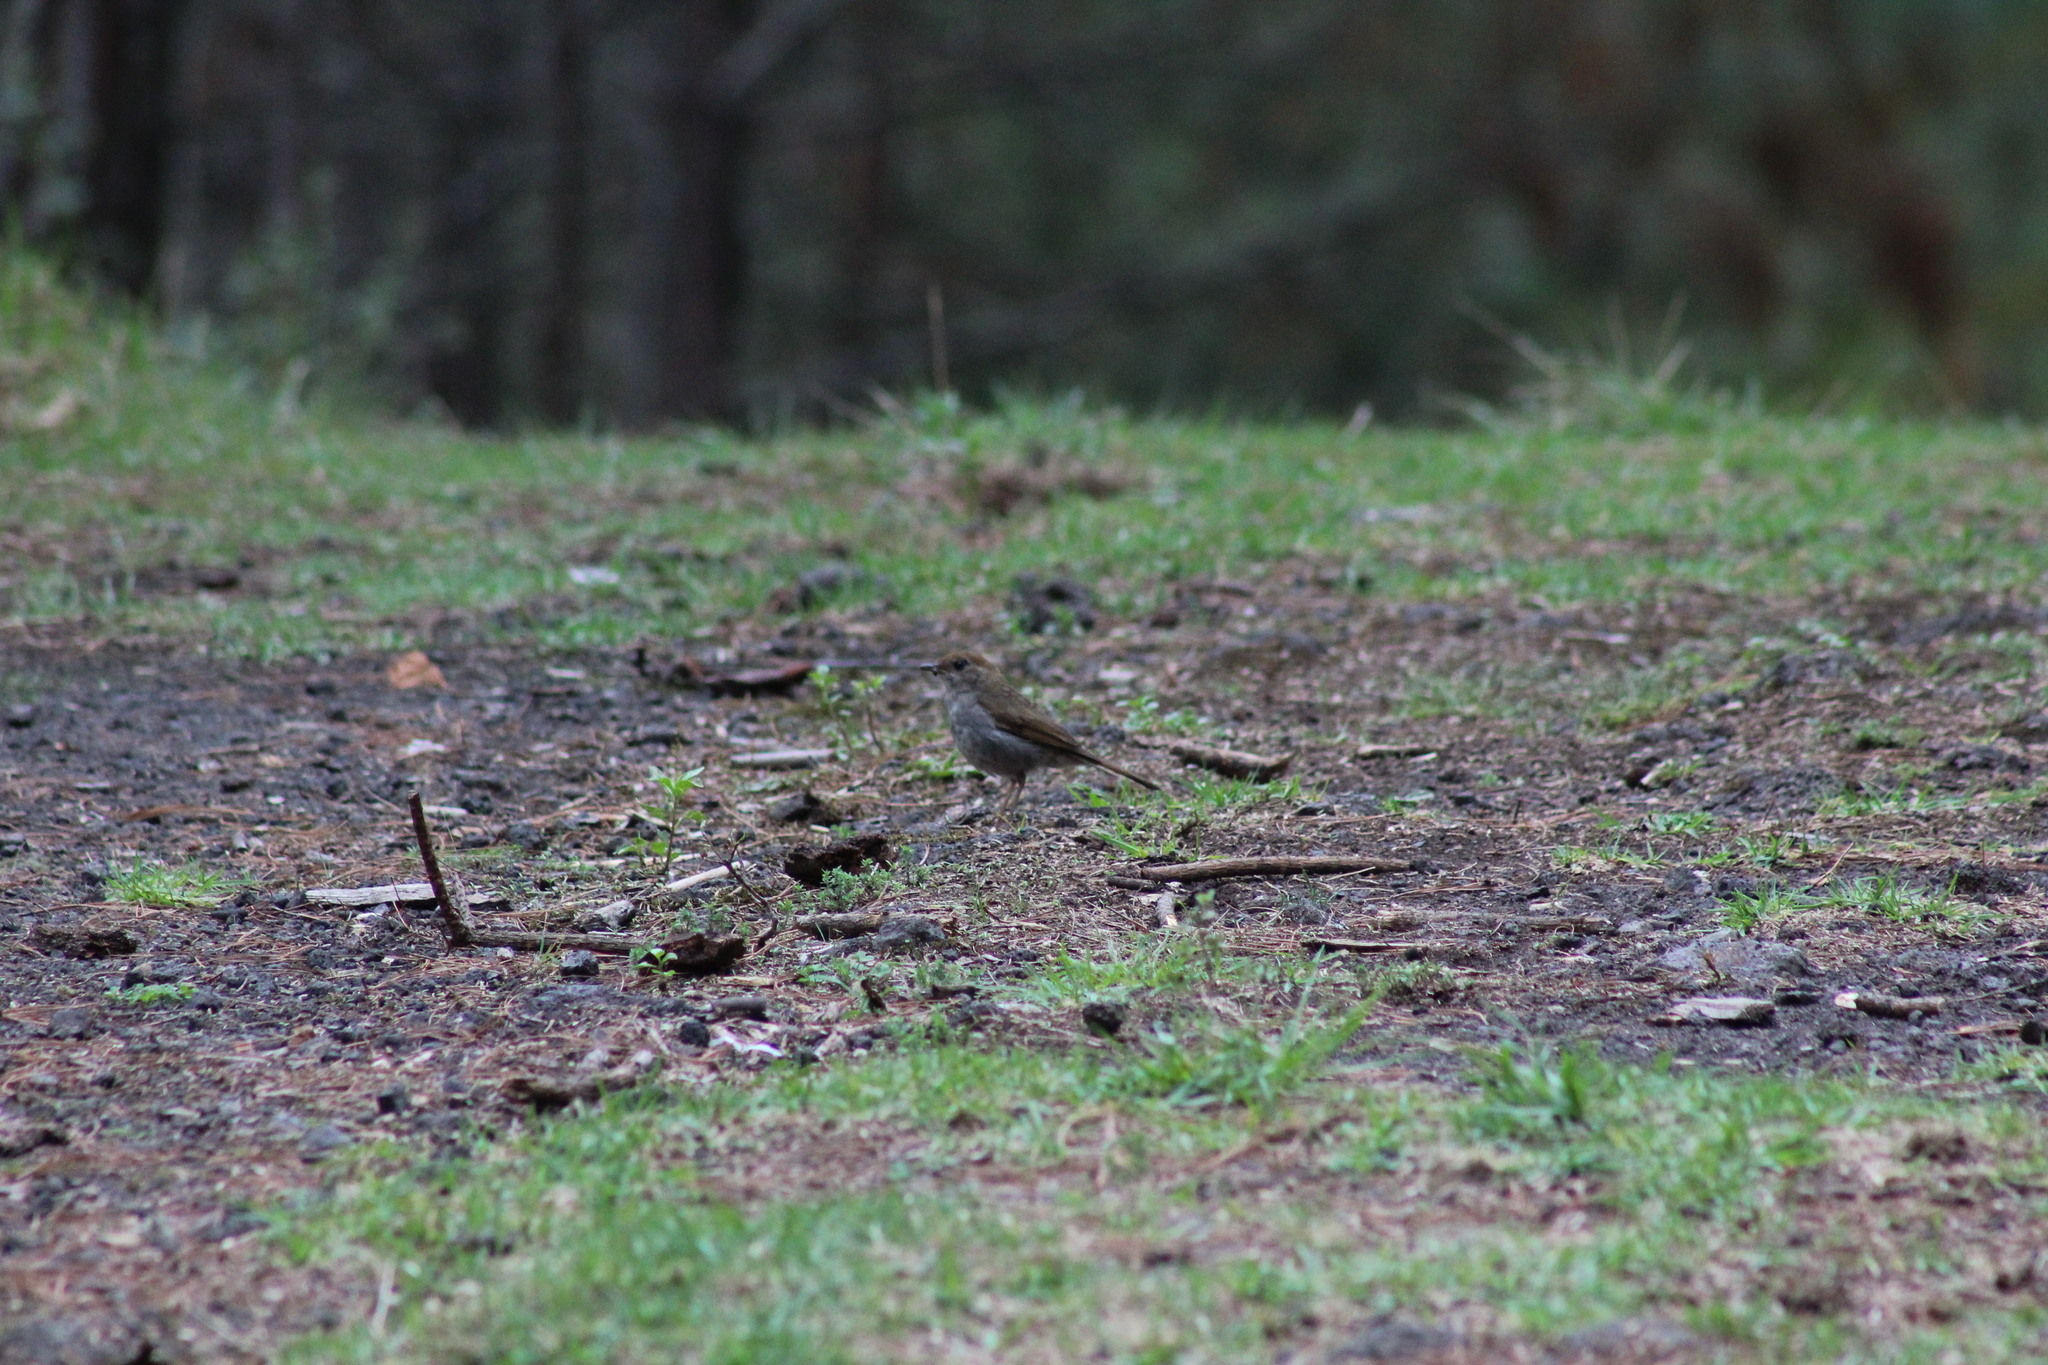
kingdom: Animalia
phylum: Chordata
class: Aves
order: Passeriformes
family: Turdidae
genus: Catharus
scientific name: Catharus frantzii
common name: Ruddy-capped nightingale-thrush
